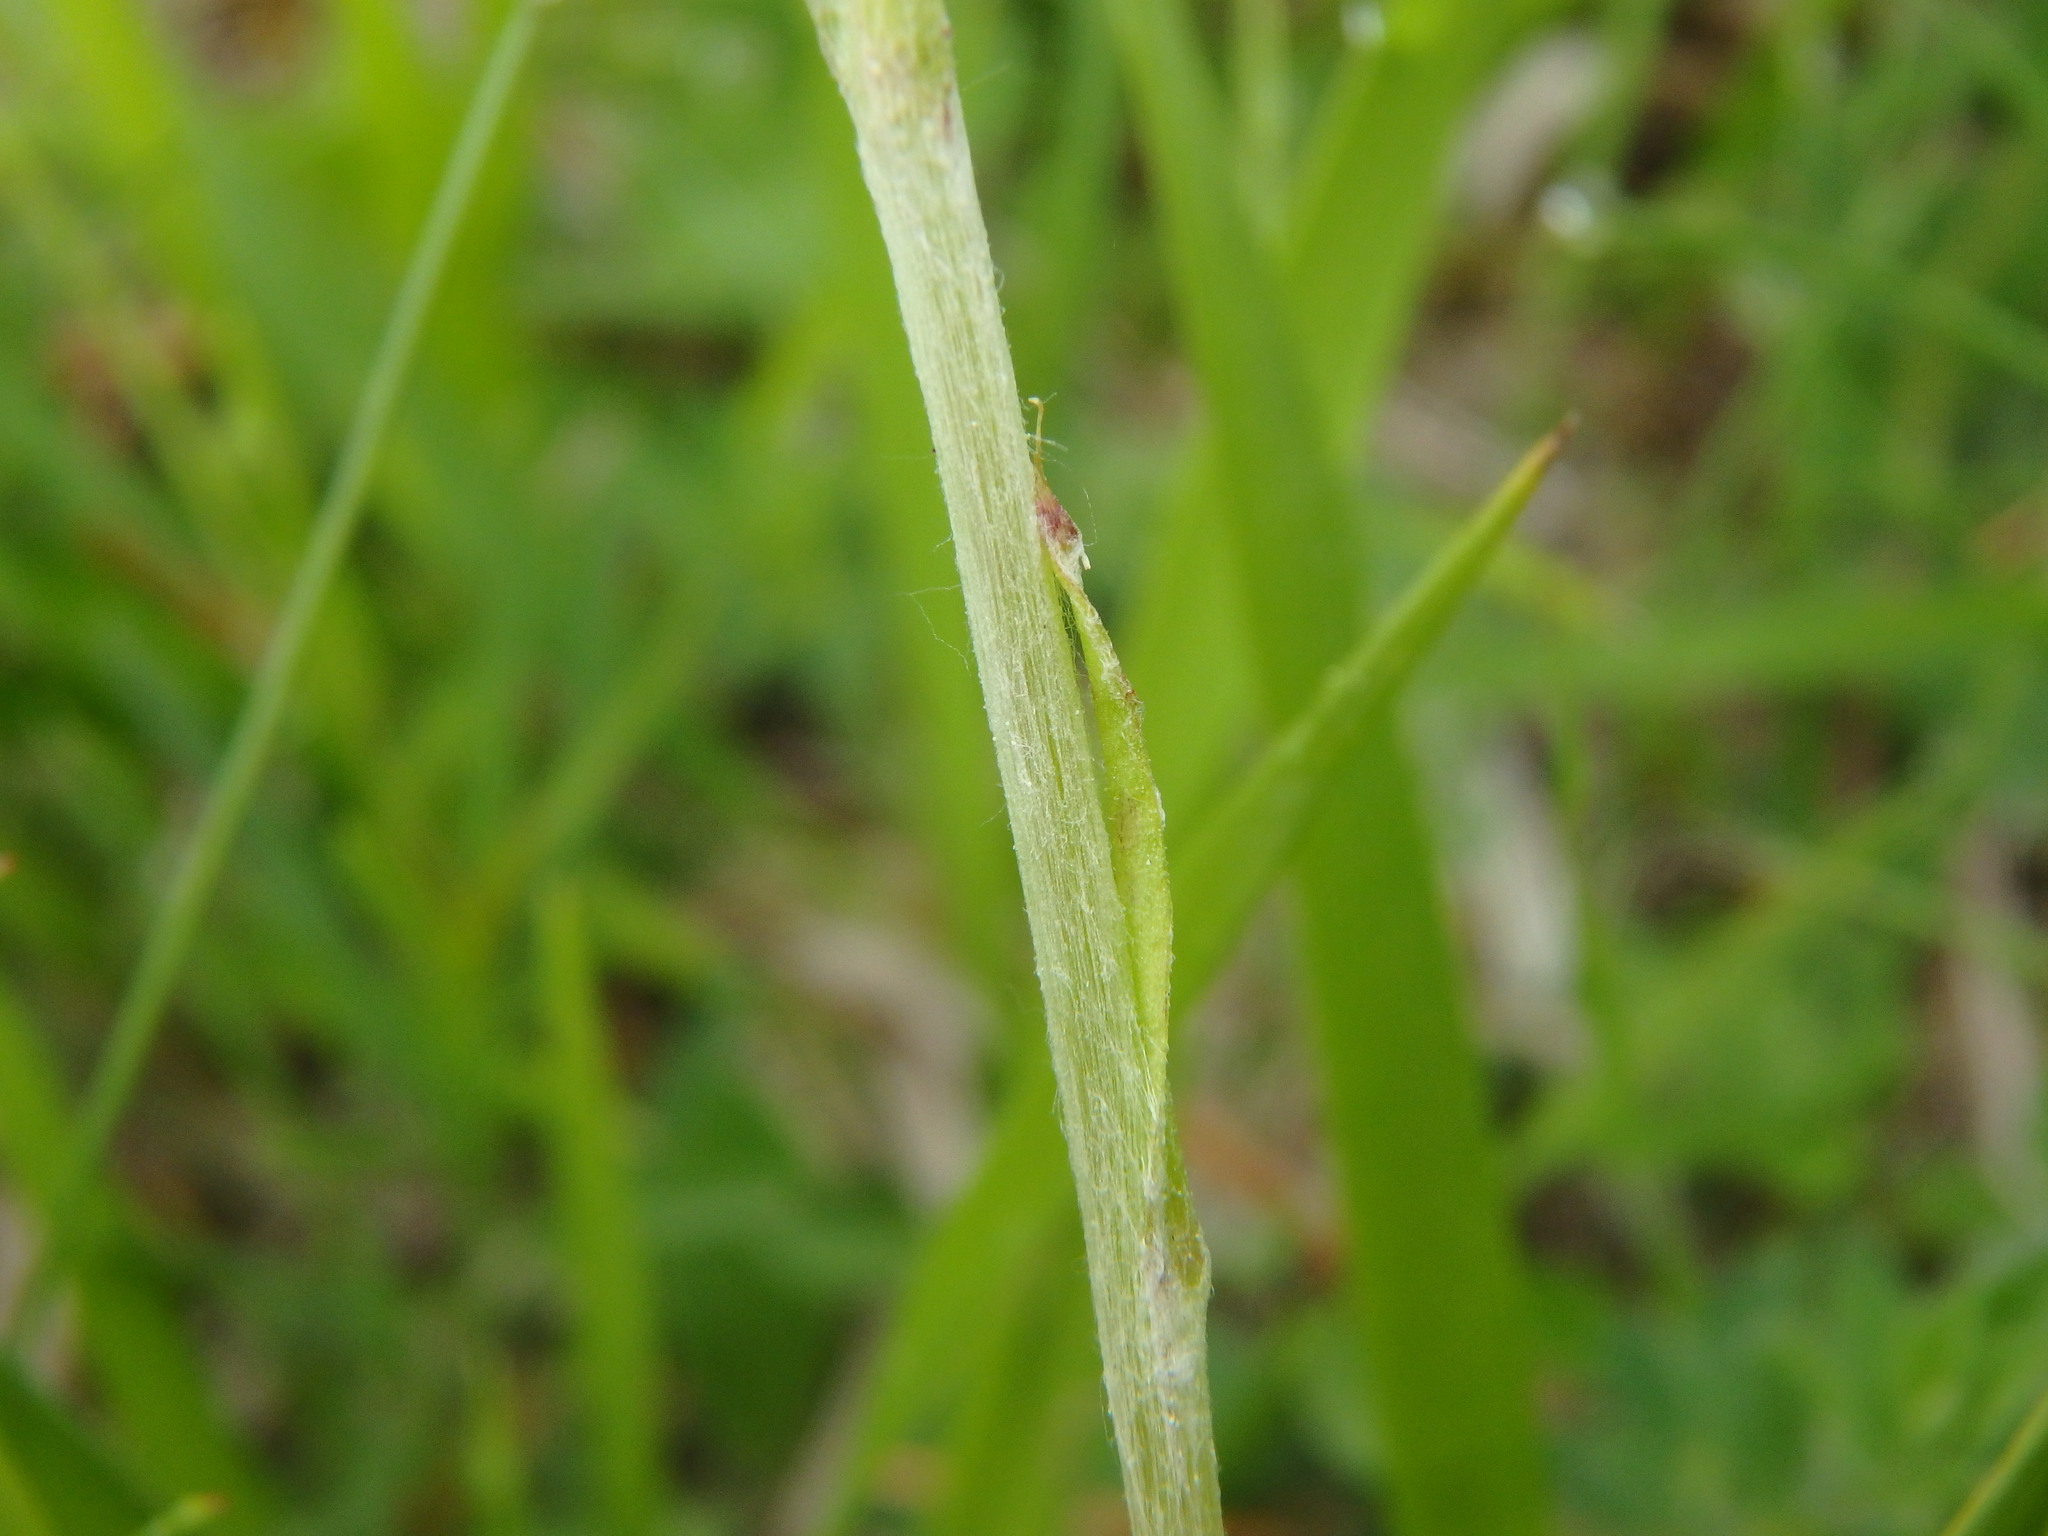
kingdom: Plantae
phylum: Tracheophyta
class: Magnoliopsida
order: Asterales
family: Asteraceae
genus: Antennaria
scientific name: Antennaria dioica
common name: Mountain everlasting
